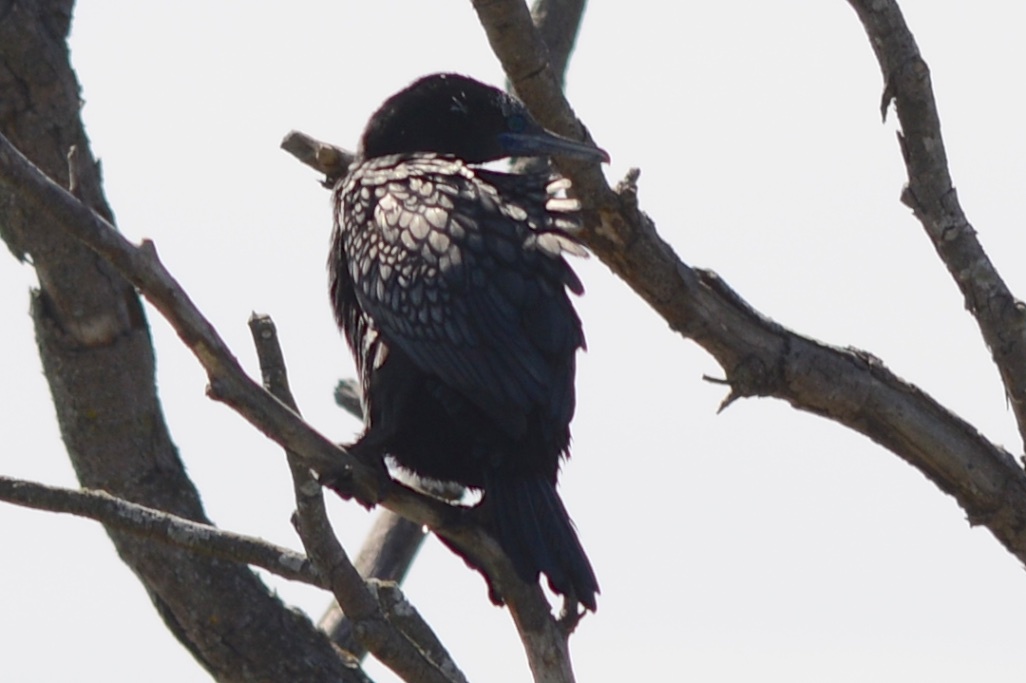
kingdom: Animalia
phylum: Chordata
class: Aves
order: Suliformes
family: Phalacrocoracidae
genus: Phalacrocorax
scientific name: Phalacrocorax sulcirostris
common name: Little black cormorant
